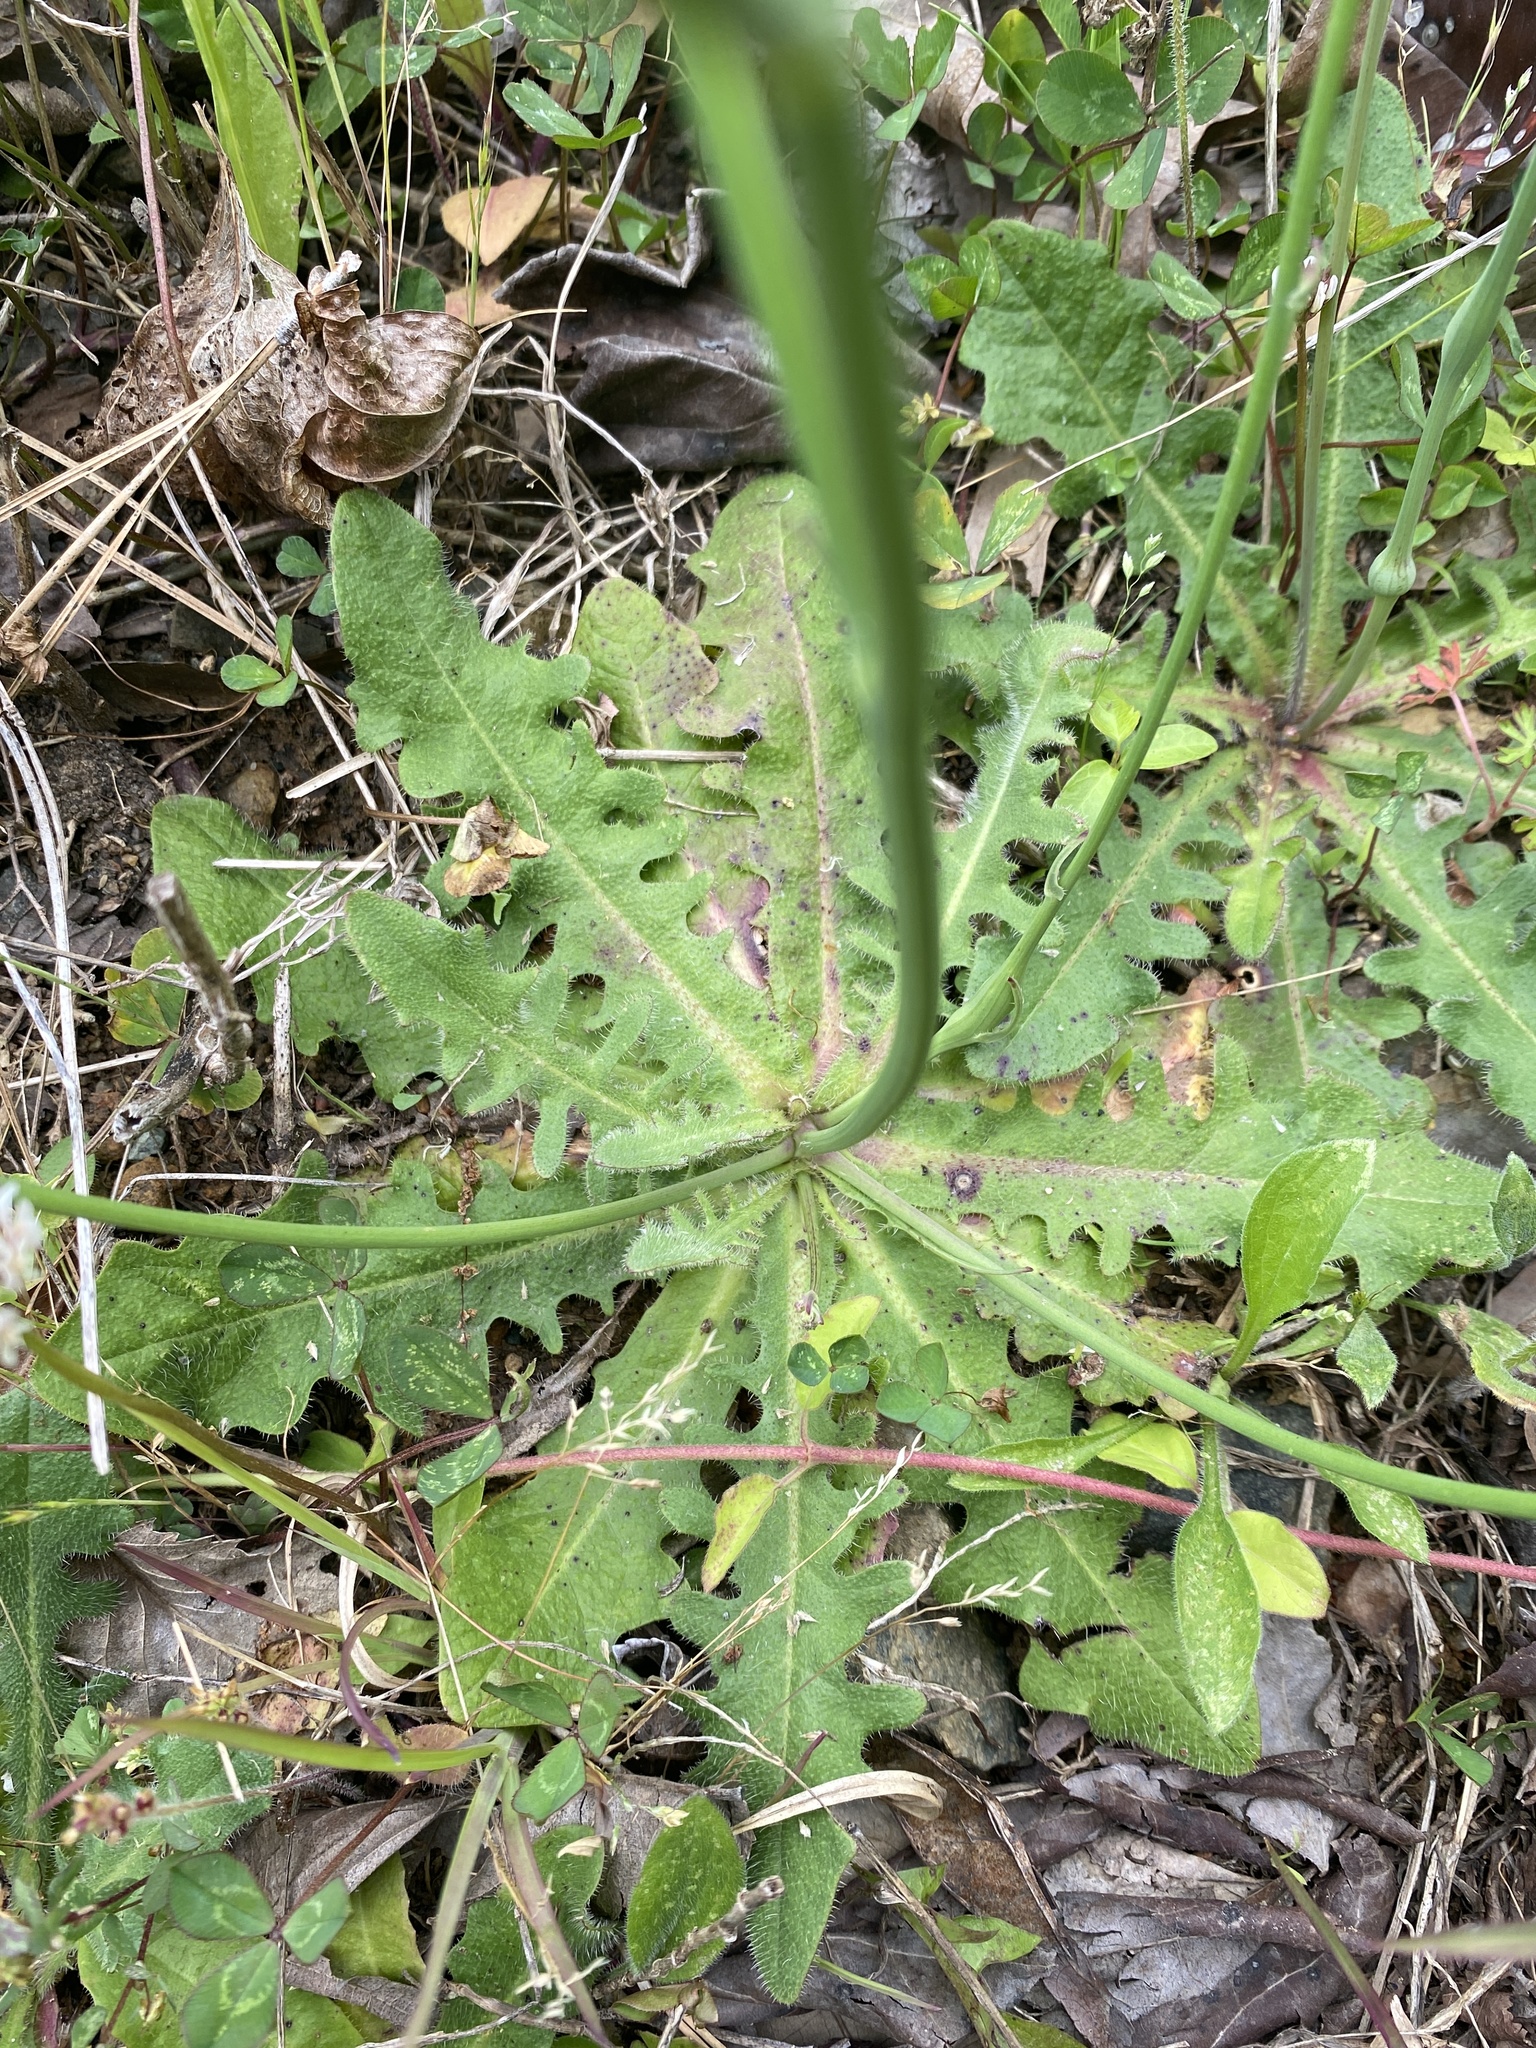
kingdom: Plantae
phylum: Tracheophyta
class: Magnoliopsida
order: Asterales
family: Asteraceae
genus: Hypochaeris
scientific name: Hypochaeris radicata
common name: Flatweed
